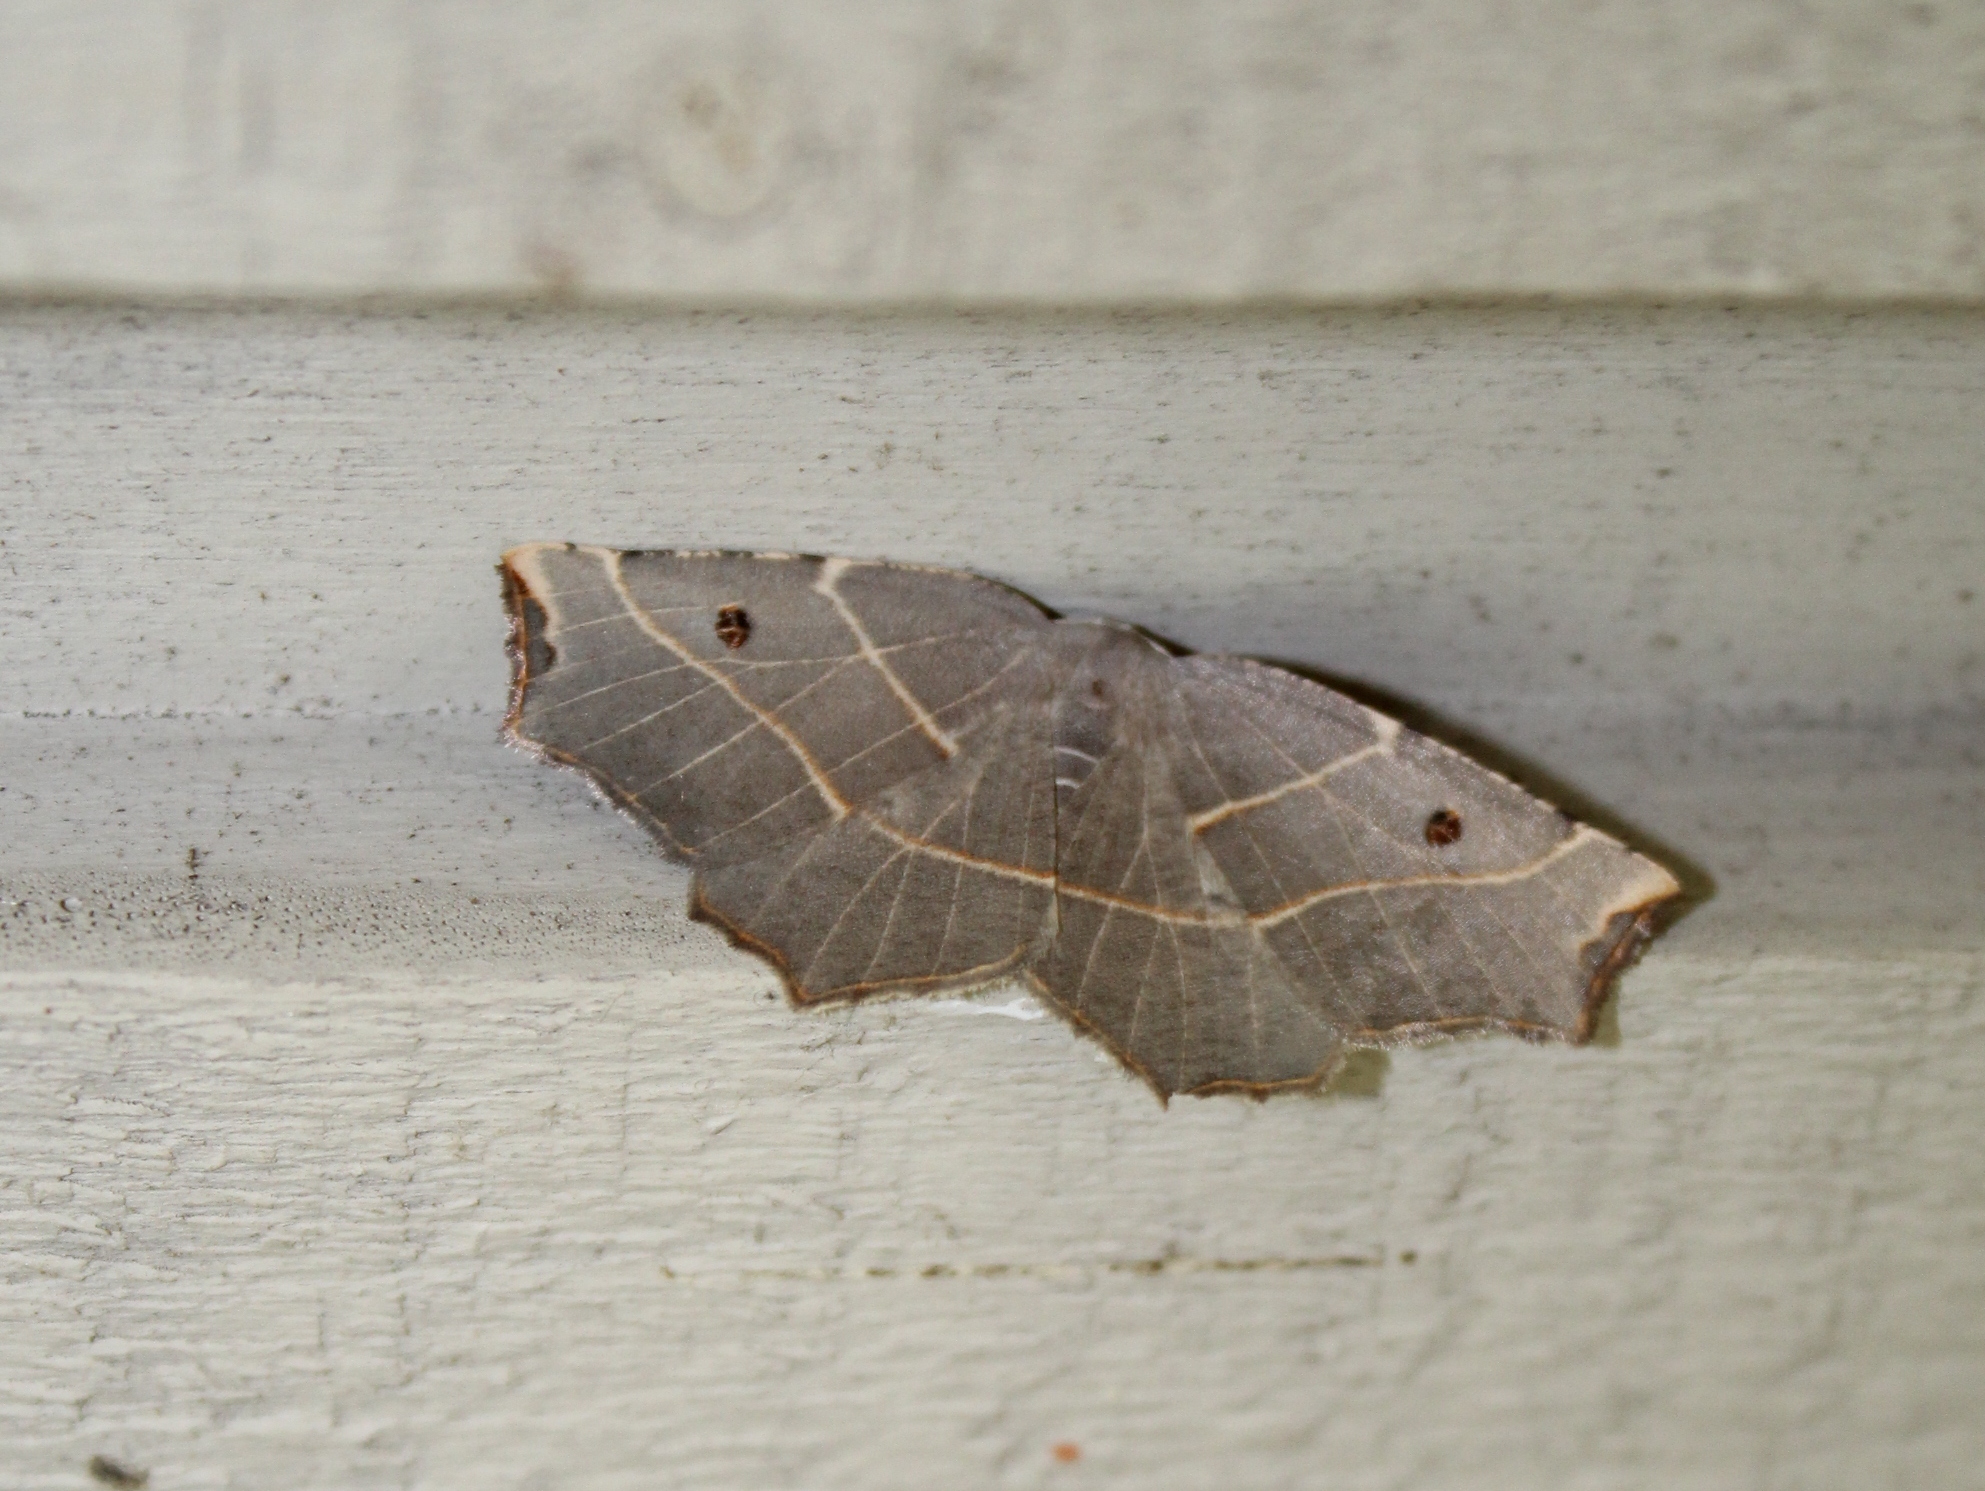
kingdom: Animalia
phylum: Arthropoda
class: Insecta
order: Lepidoptera
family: Geometridae
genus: Metanema
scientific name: Metanema inatomaria
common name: Pale metanema
